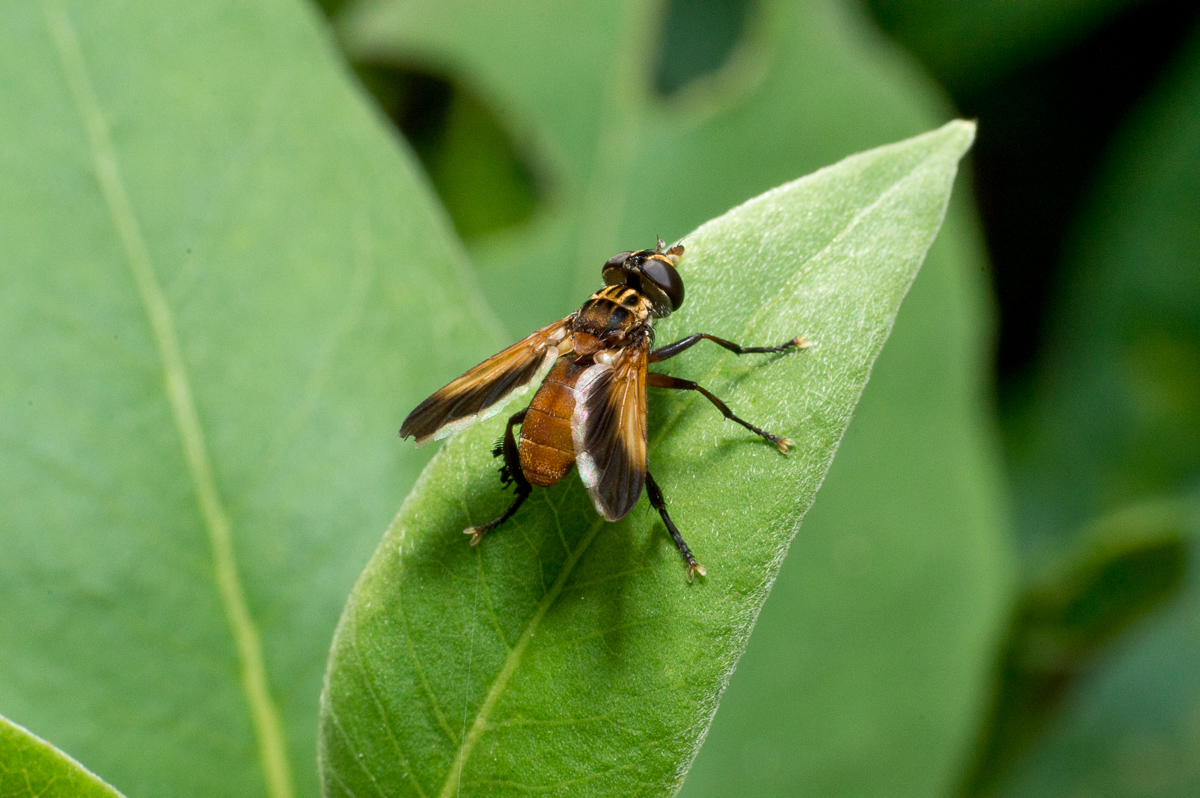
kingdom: Animalia
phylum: Arthropoda
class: Insecta
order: Diptera
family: Tachinidae
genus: Trichopoda
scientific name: Trichopoda pennipes
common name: Tachinid fly
